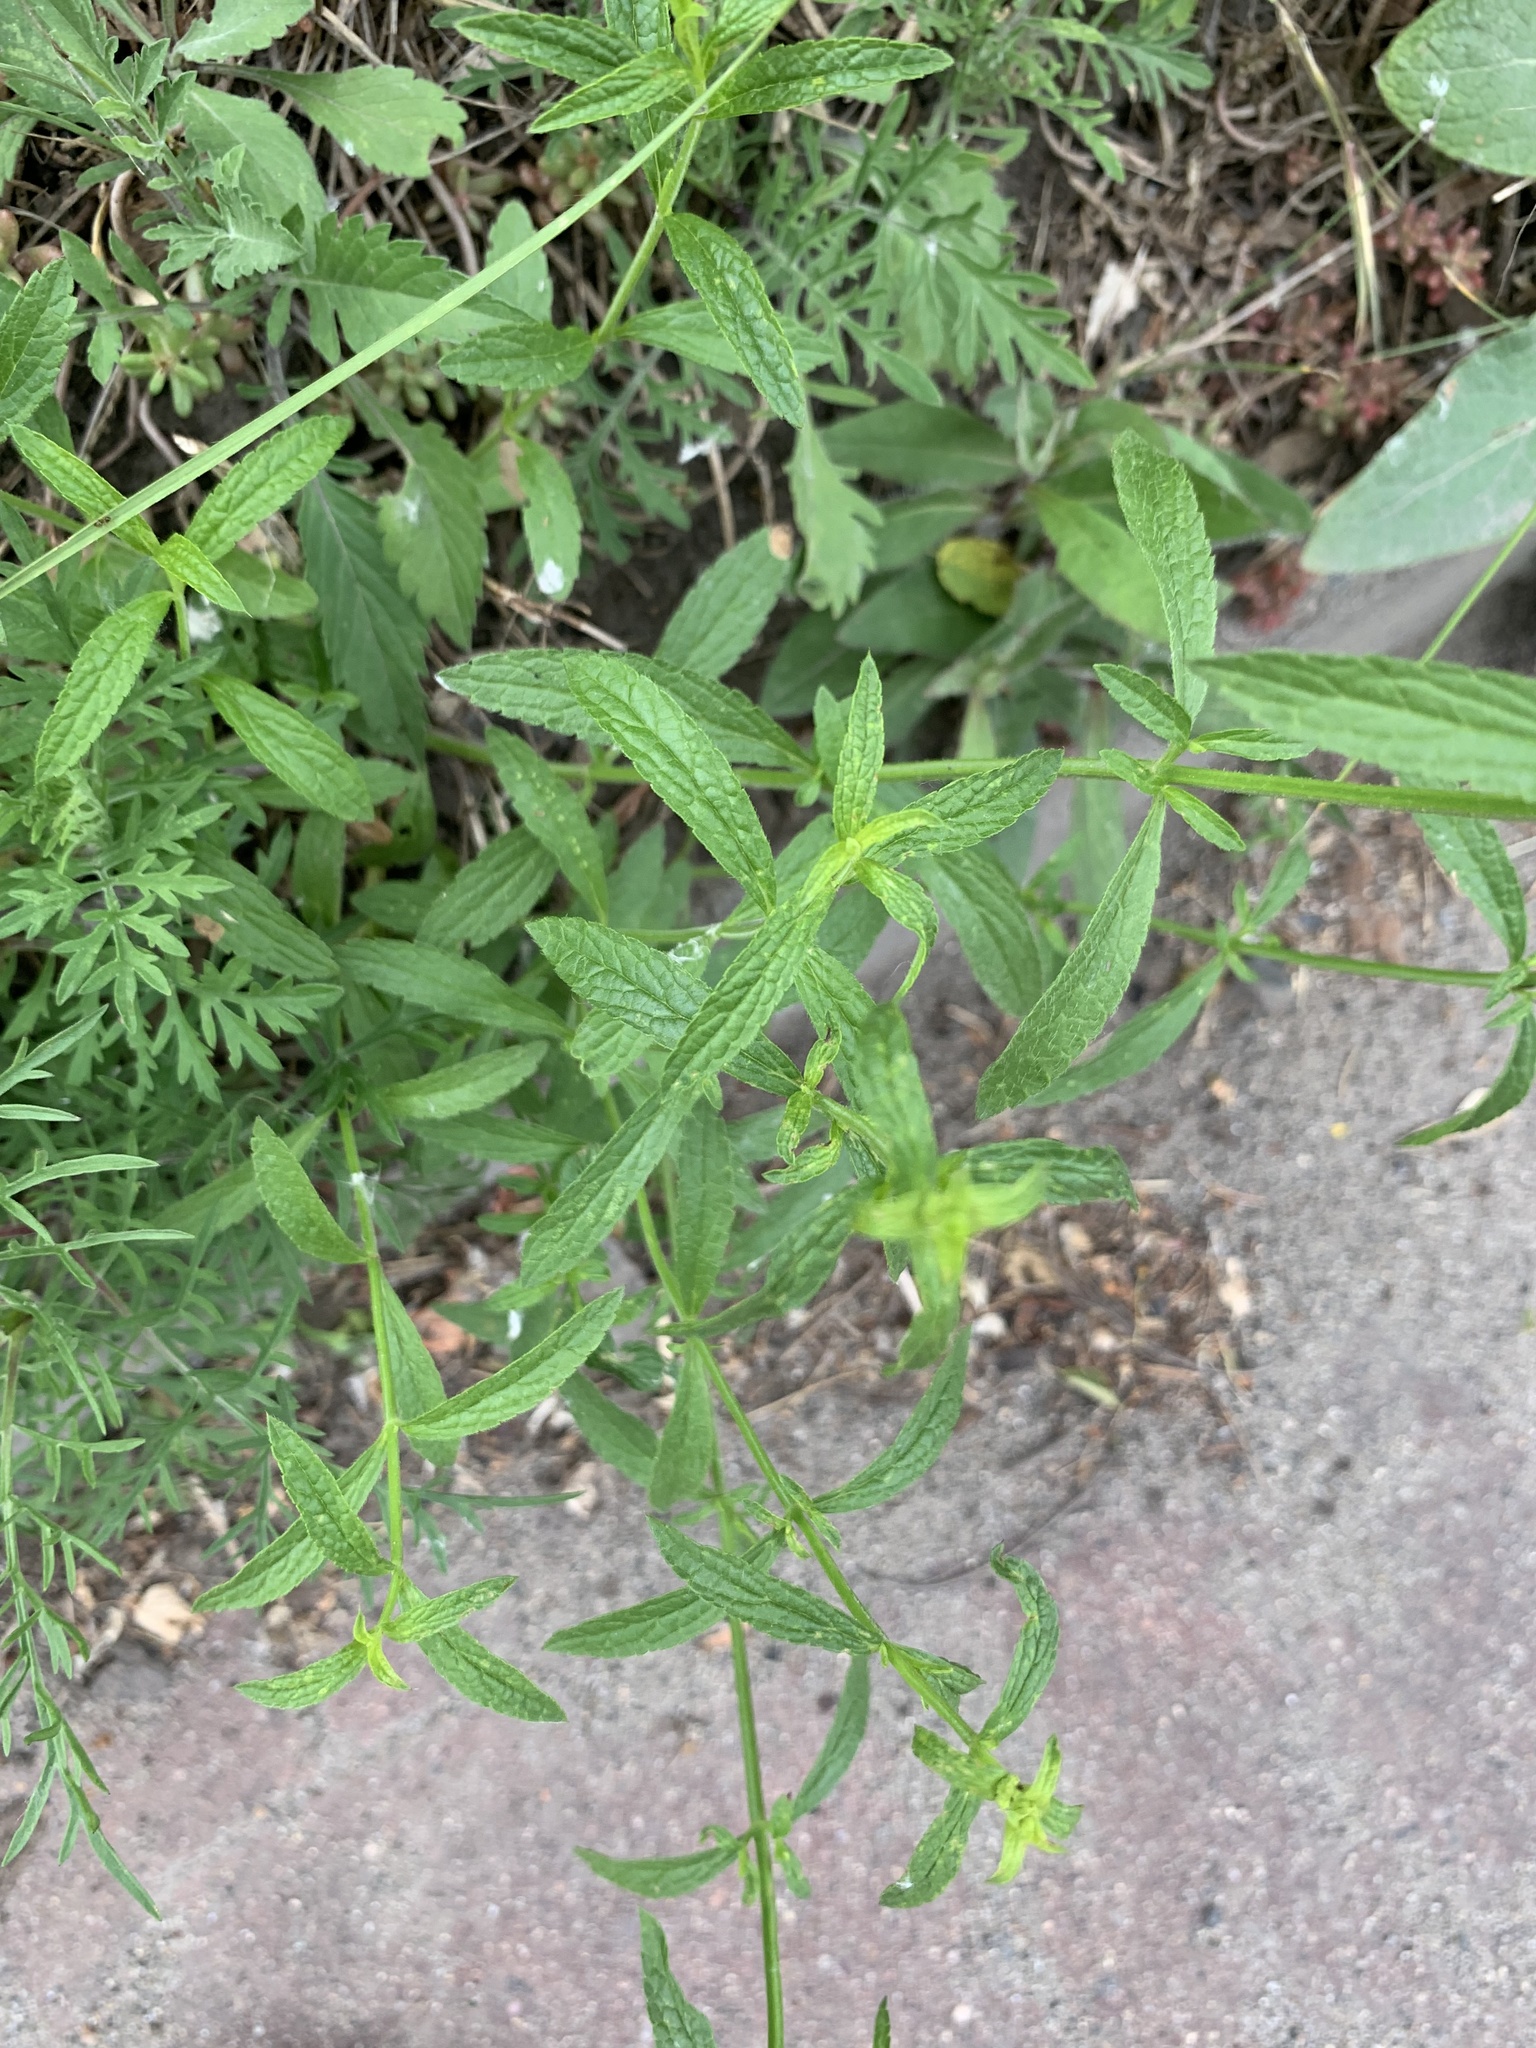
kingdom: Plantae
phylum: Tracheophyta
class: Magnoliopsida
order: Lamiales
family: Lamiaceae
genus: Stachys
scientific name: Stachys recta
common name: Perennial yellow-woundwort
